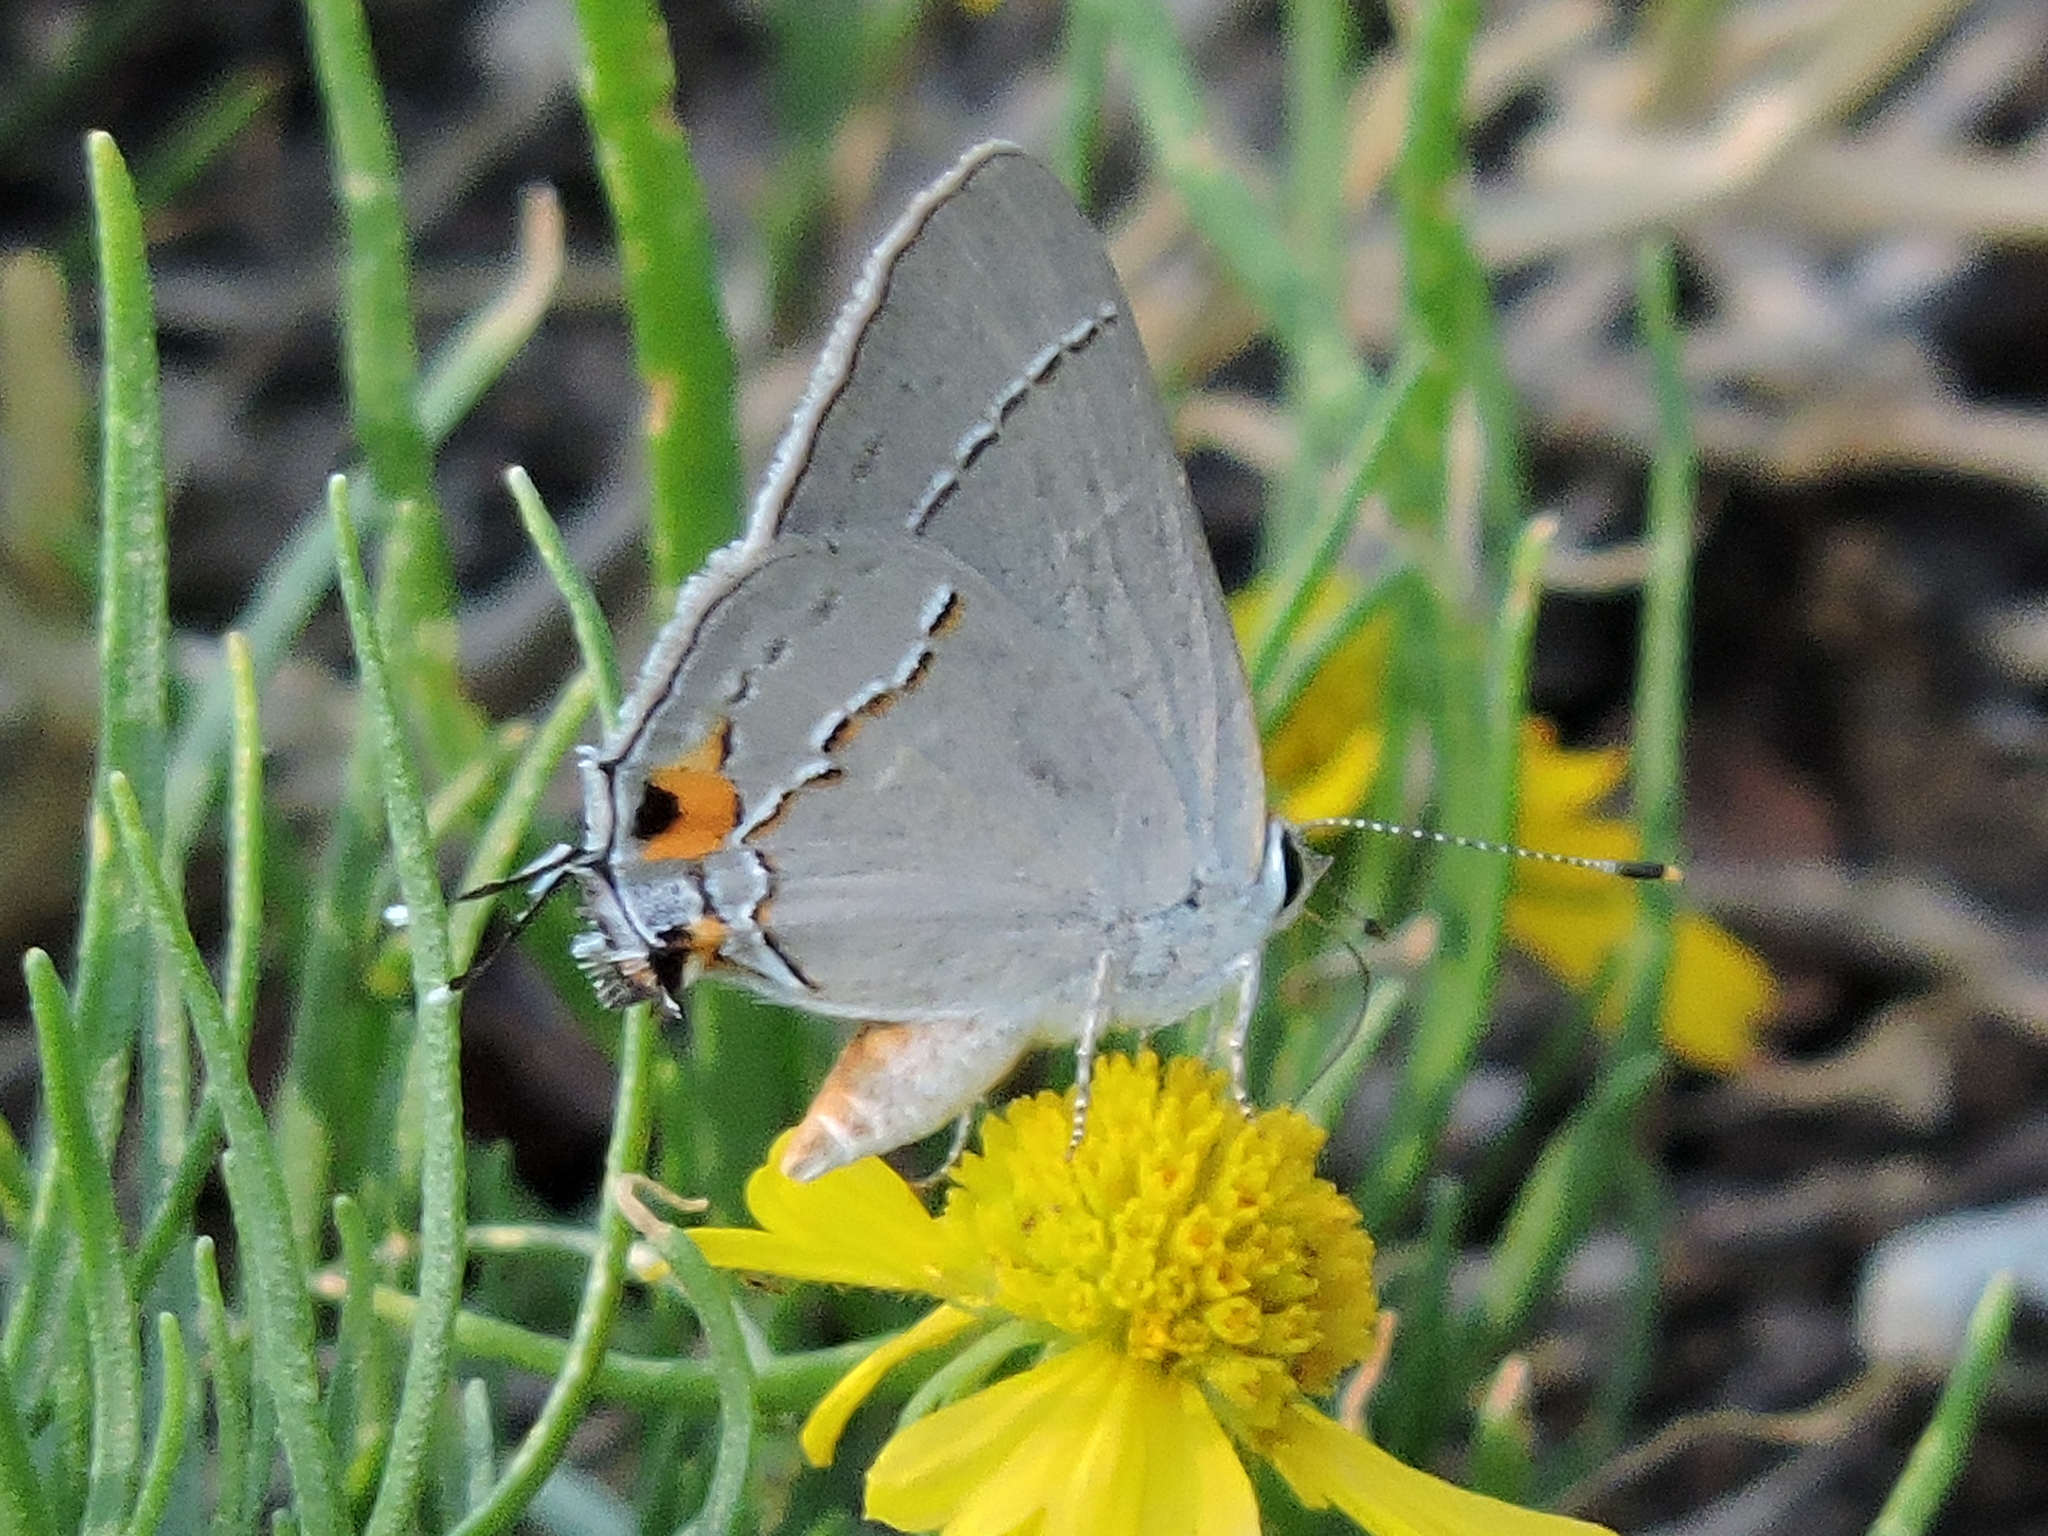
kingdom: Animalia
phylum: Arthropoda
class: Insecta
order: Lepidoptera
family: Lycaenidae
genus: Strymon
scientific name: Strymon melinus
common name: Gray hairstreak
